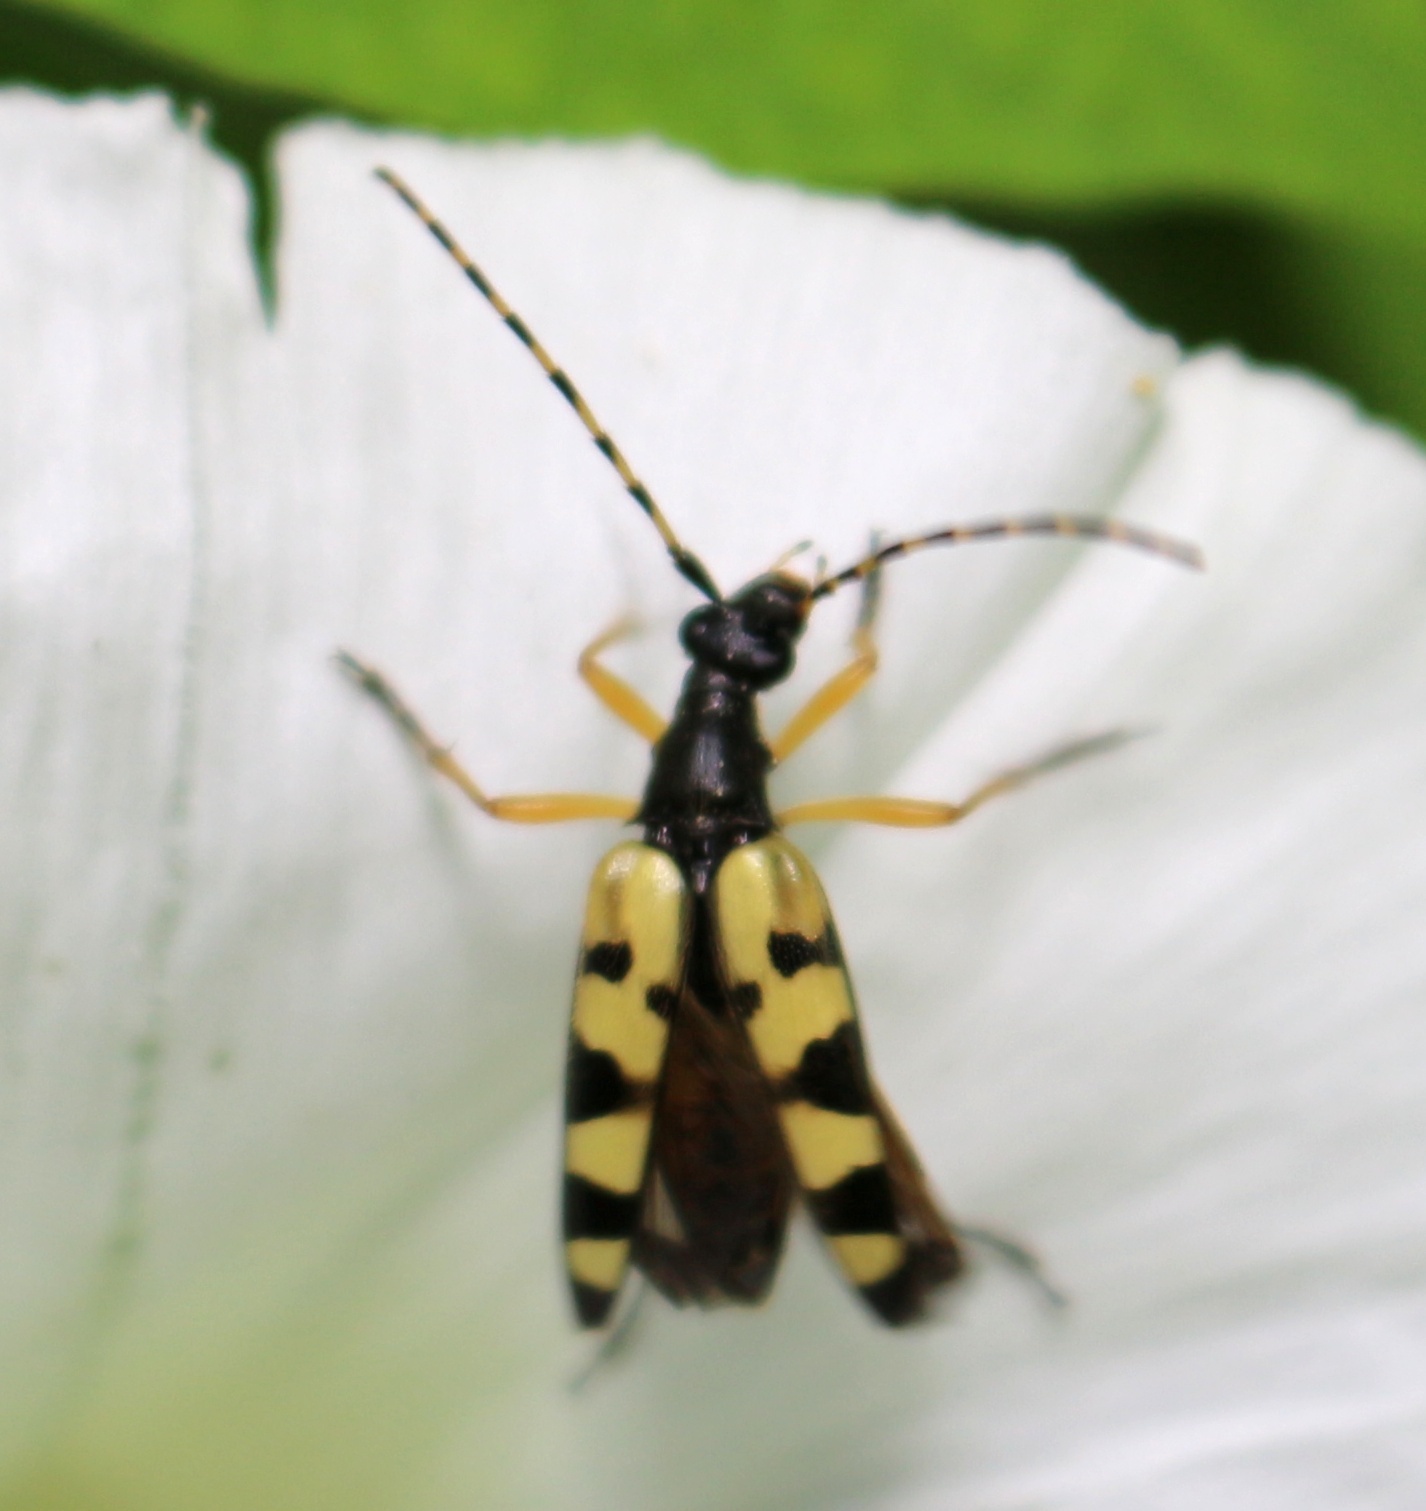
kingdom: Animalia
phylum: Arthropoda
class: Insecta
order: Coleoptera
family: Cerambycidae
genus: Rutpela
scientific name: Rutpela maculata
